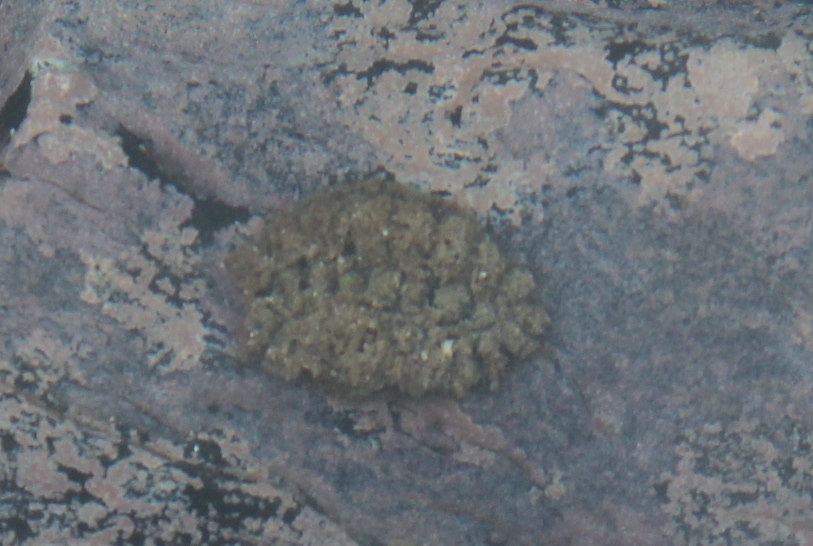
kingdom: Animalia
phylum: Mollusca
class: Polyplacophora
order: Chitonida
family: Acanthochitonidae
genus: Acanthochitona
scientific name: Acanthochitona garnoti
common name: Spiny chiton
